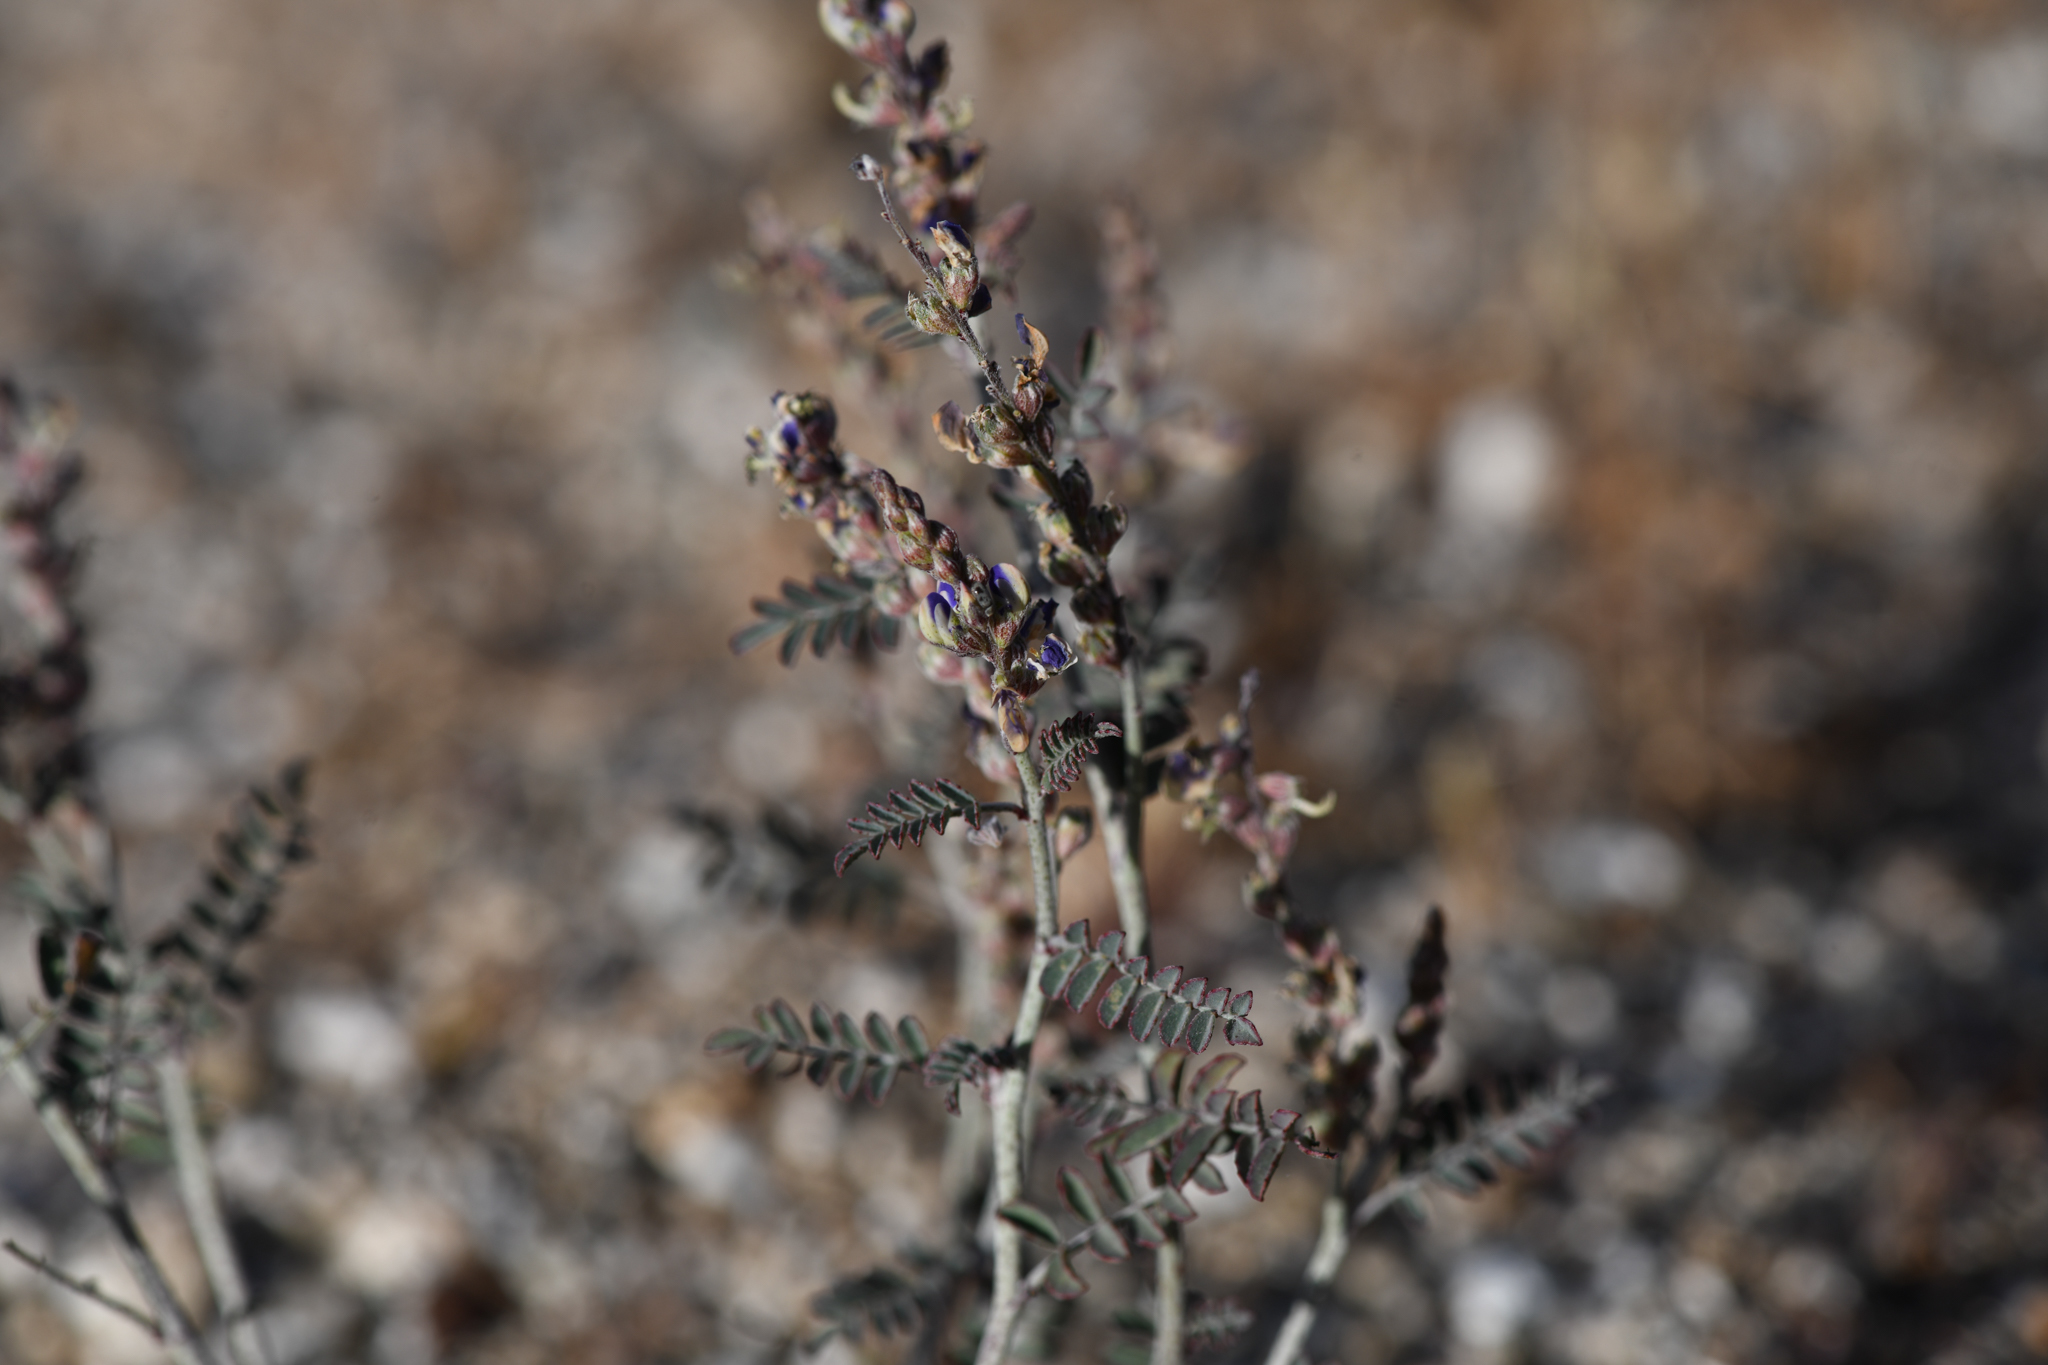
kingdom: Plantae
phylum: Tracheophyta
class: Magnoliopsida
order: Fabales
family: Fabaceae
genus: Marina
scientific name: Marina parryi
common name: Parry's marina
